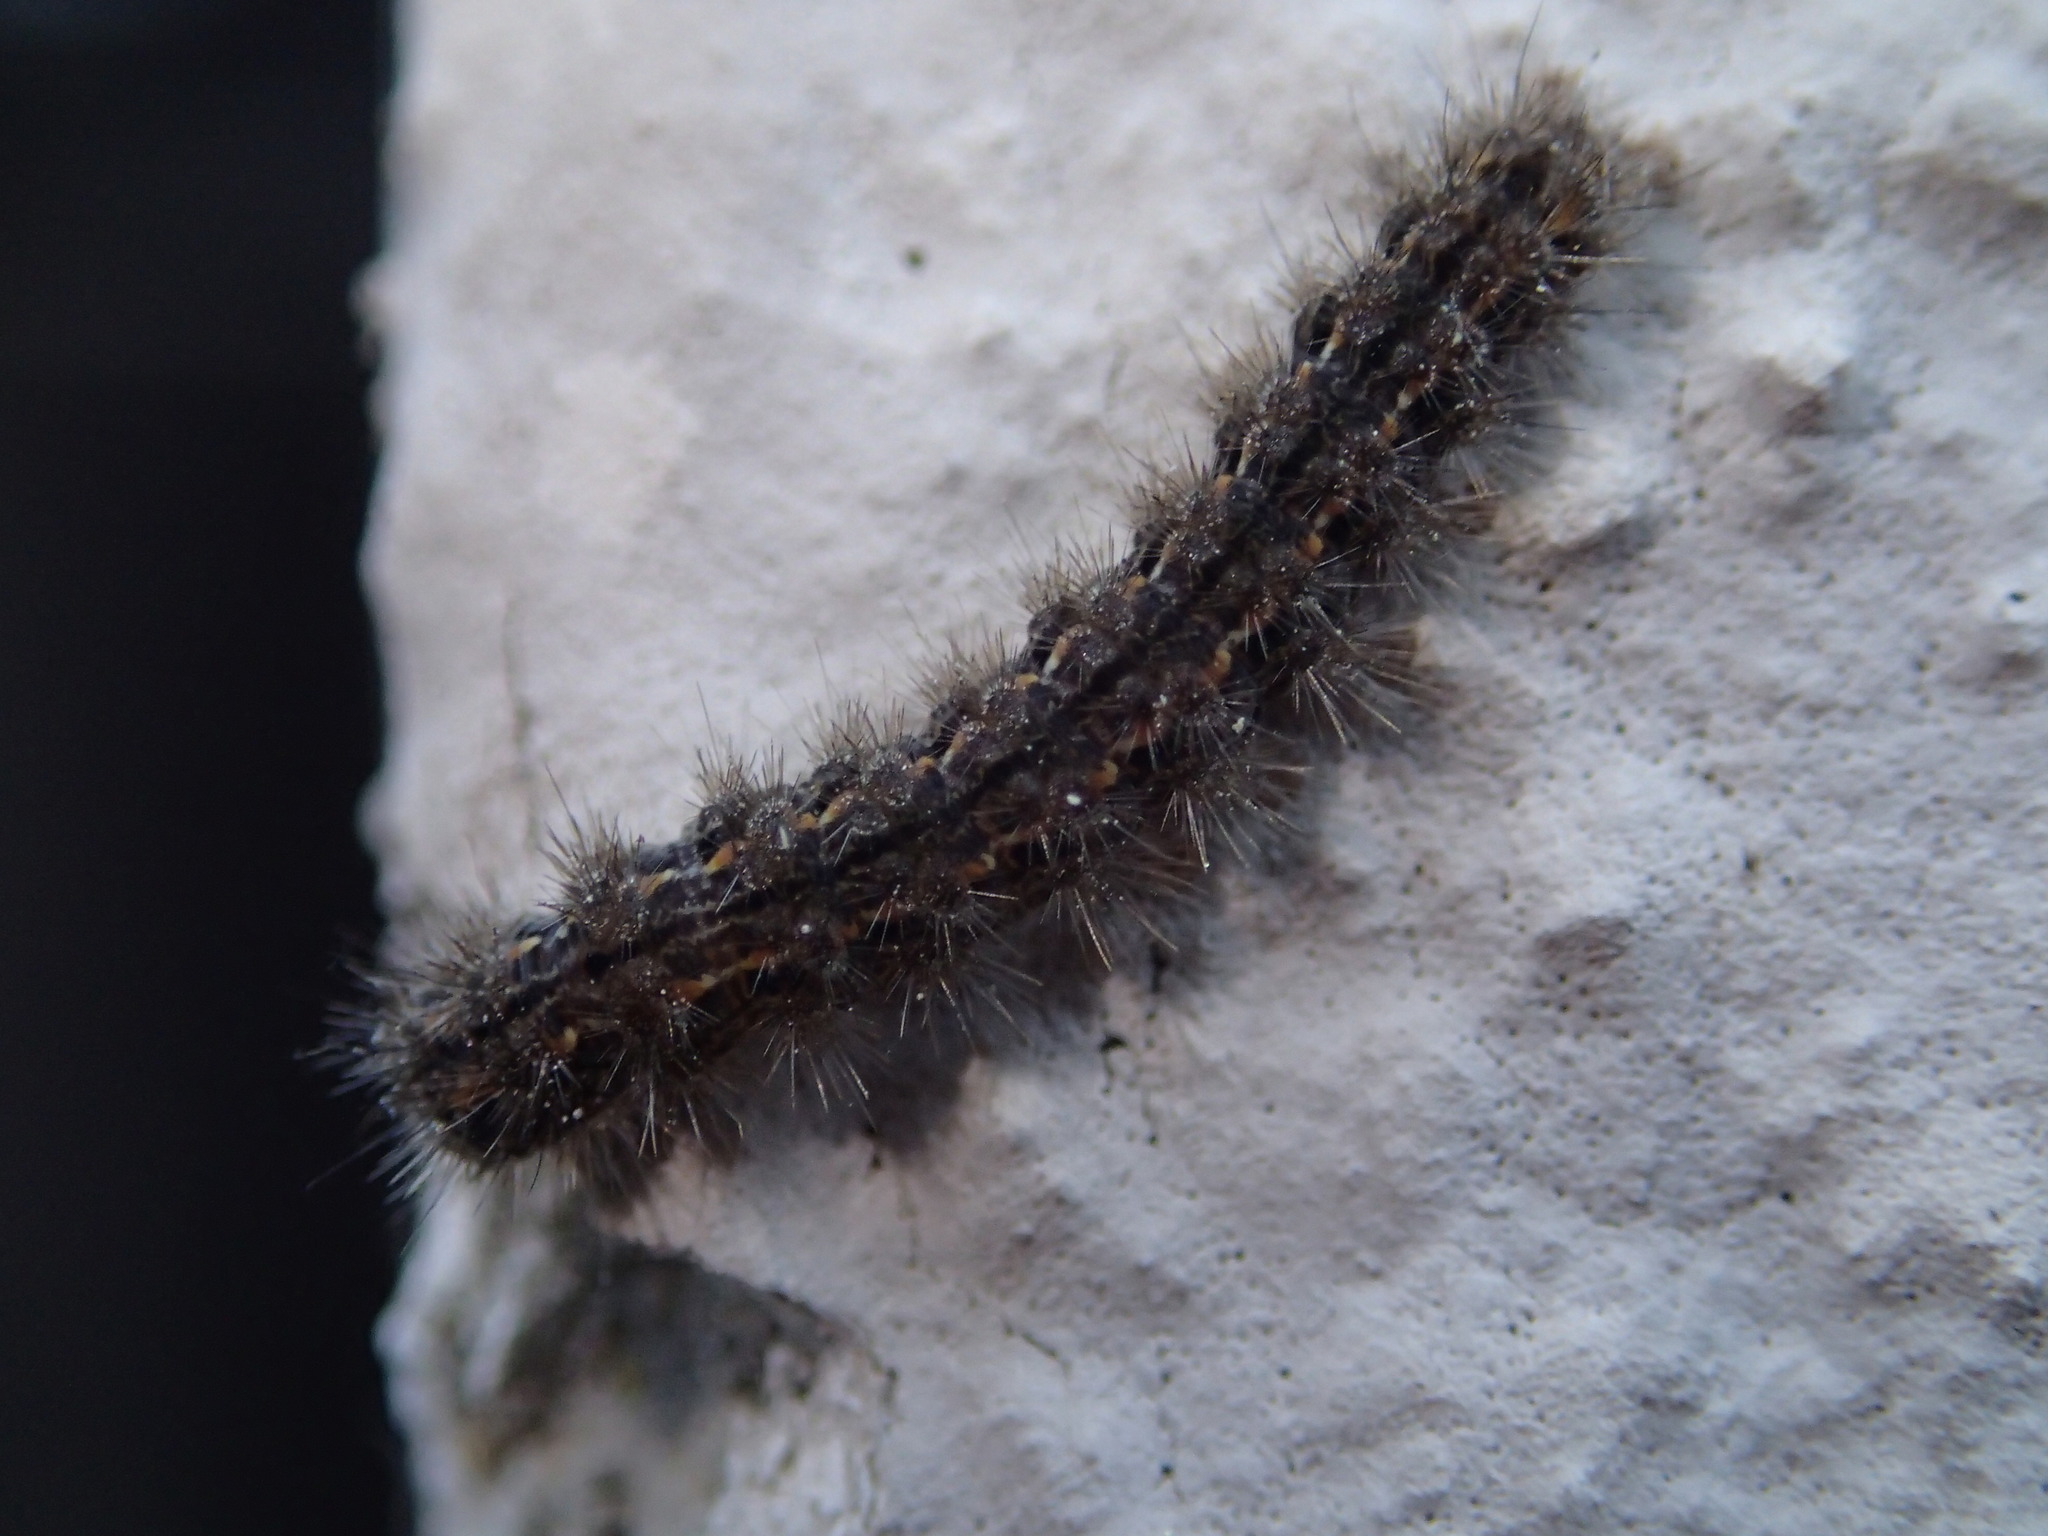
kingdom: Animalia
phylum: Arthropoda
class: Insecta
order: Lepidoptera
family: Erebidae
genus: Eilema
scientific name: Eilema caniola
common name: Hoary footman
